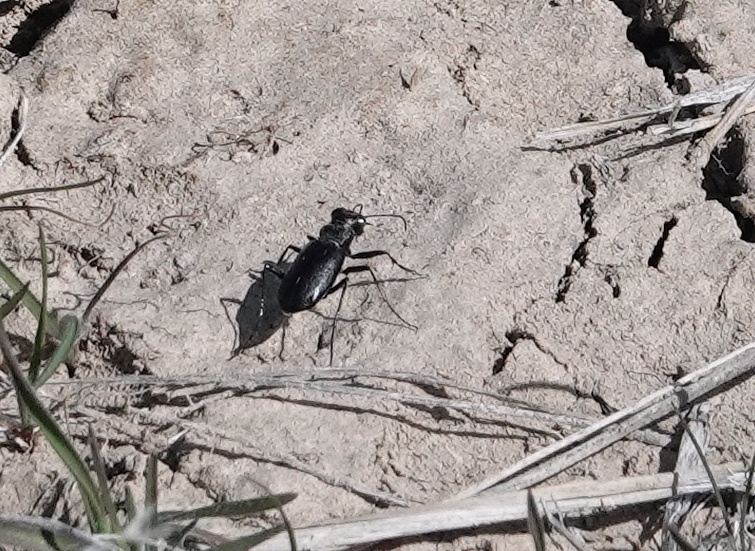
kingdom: Animalia
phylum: Arthropoda
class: Insecta
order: Coleoptera
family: Carabidae
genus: Cicindela
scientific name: Cicindela nebraskana
